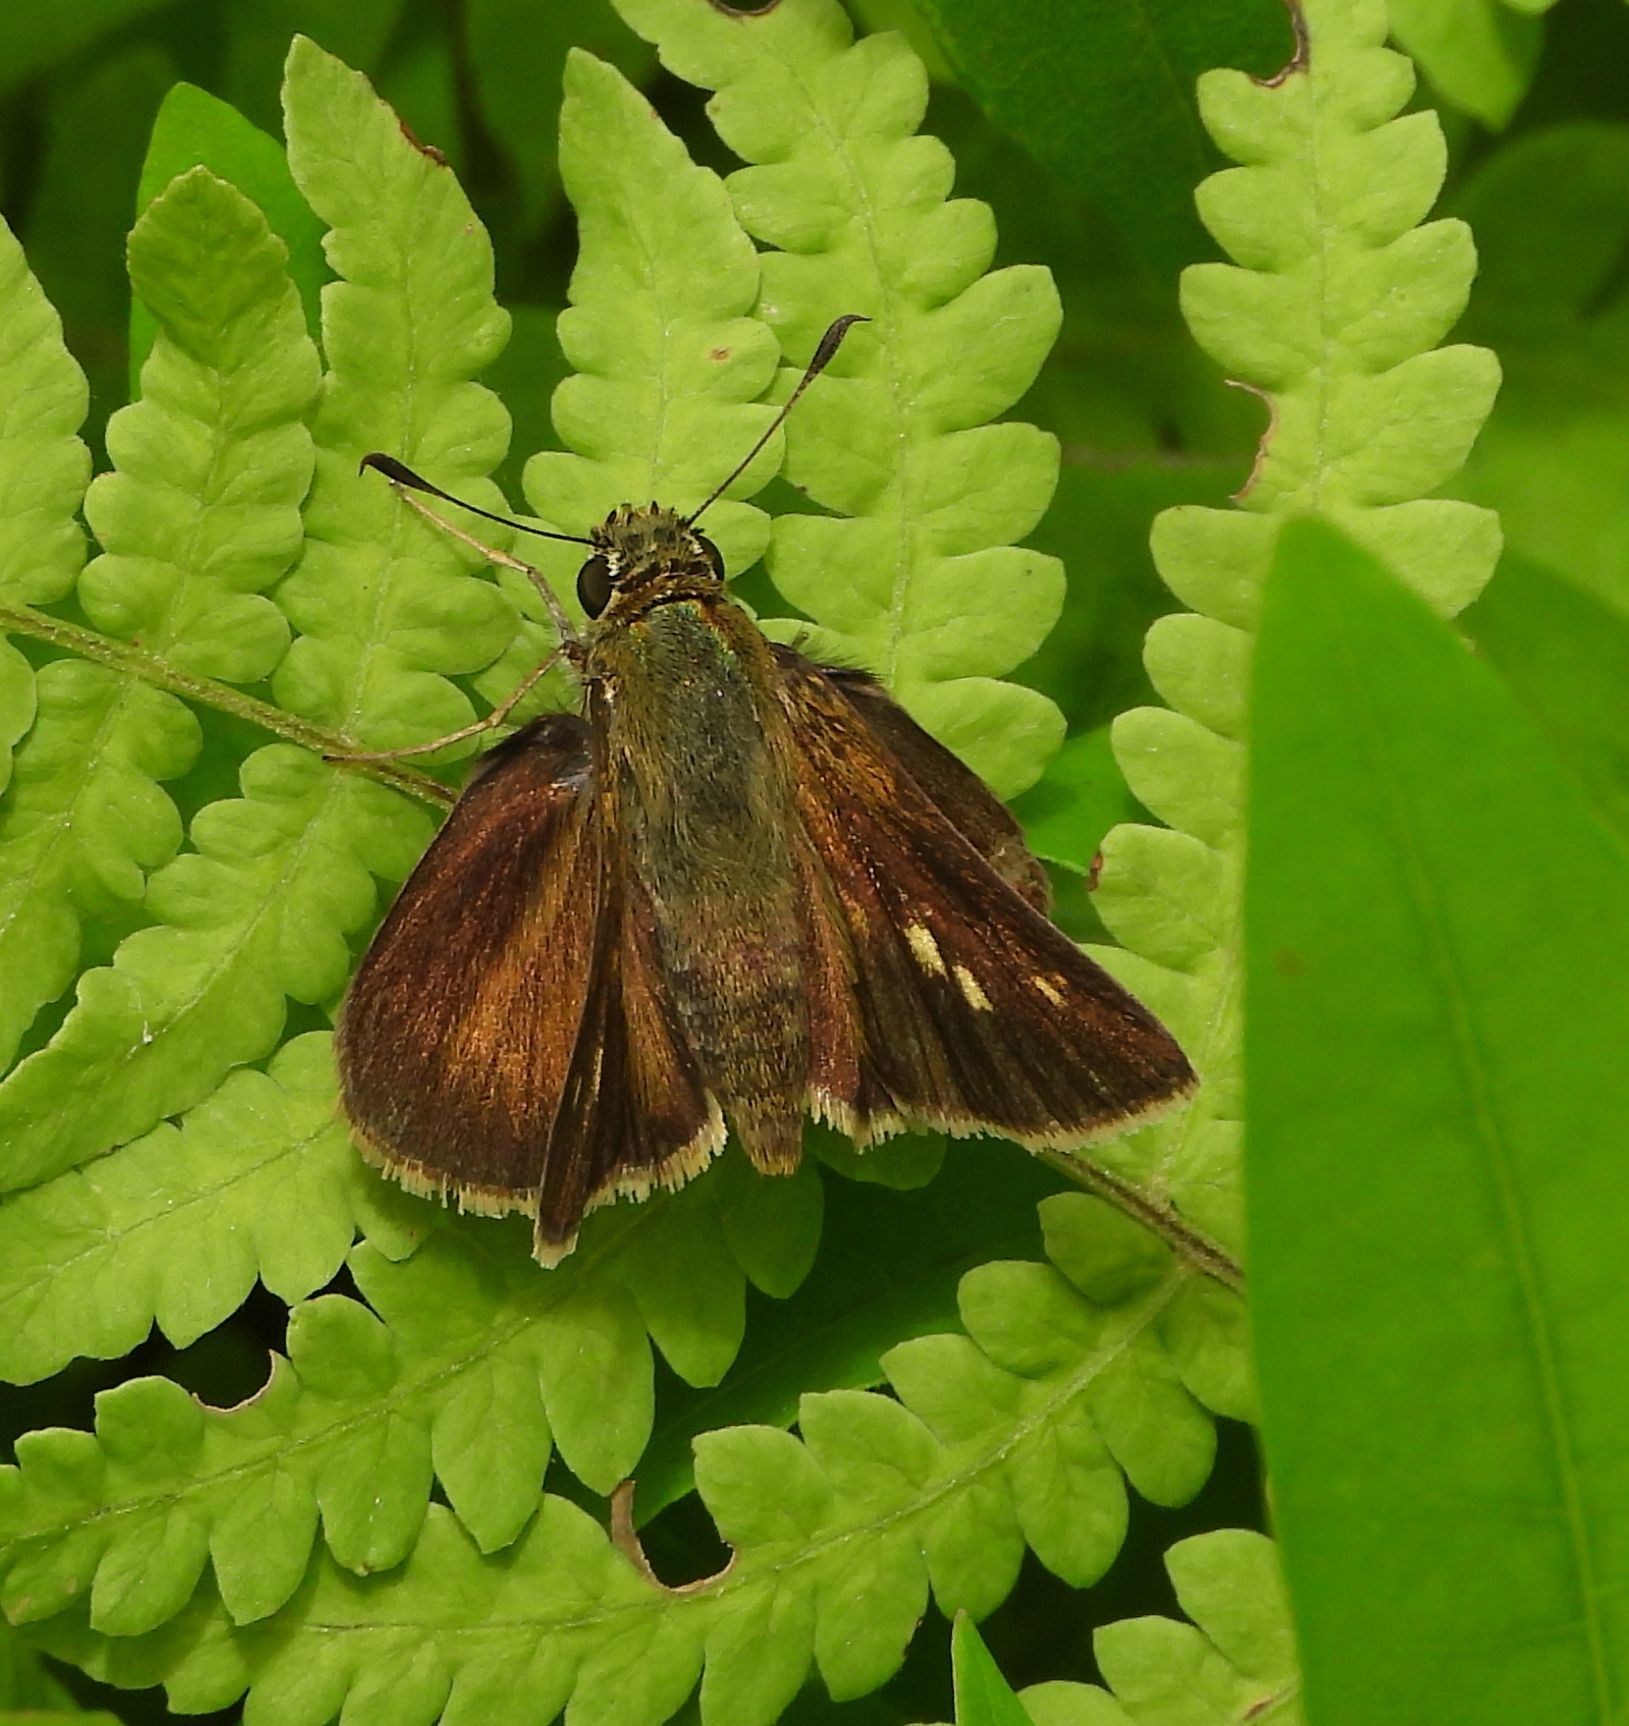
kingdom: Animalia
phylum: Arthropoda
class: Insecta
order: Lepidoptera
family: Hesperiidae
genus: Polites
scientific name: Polites egeremet
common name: Northern broken-dash
